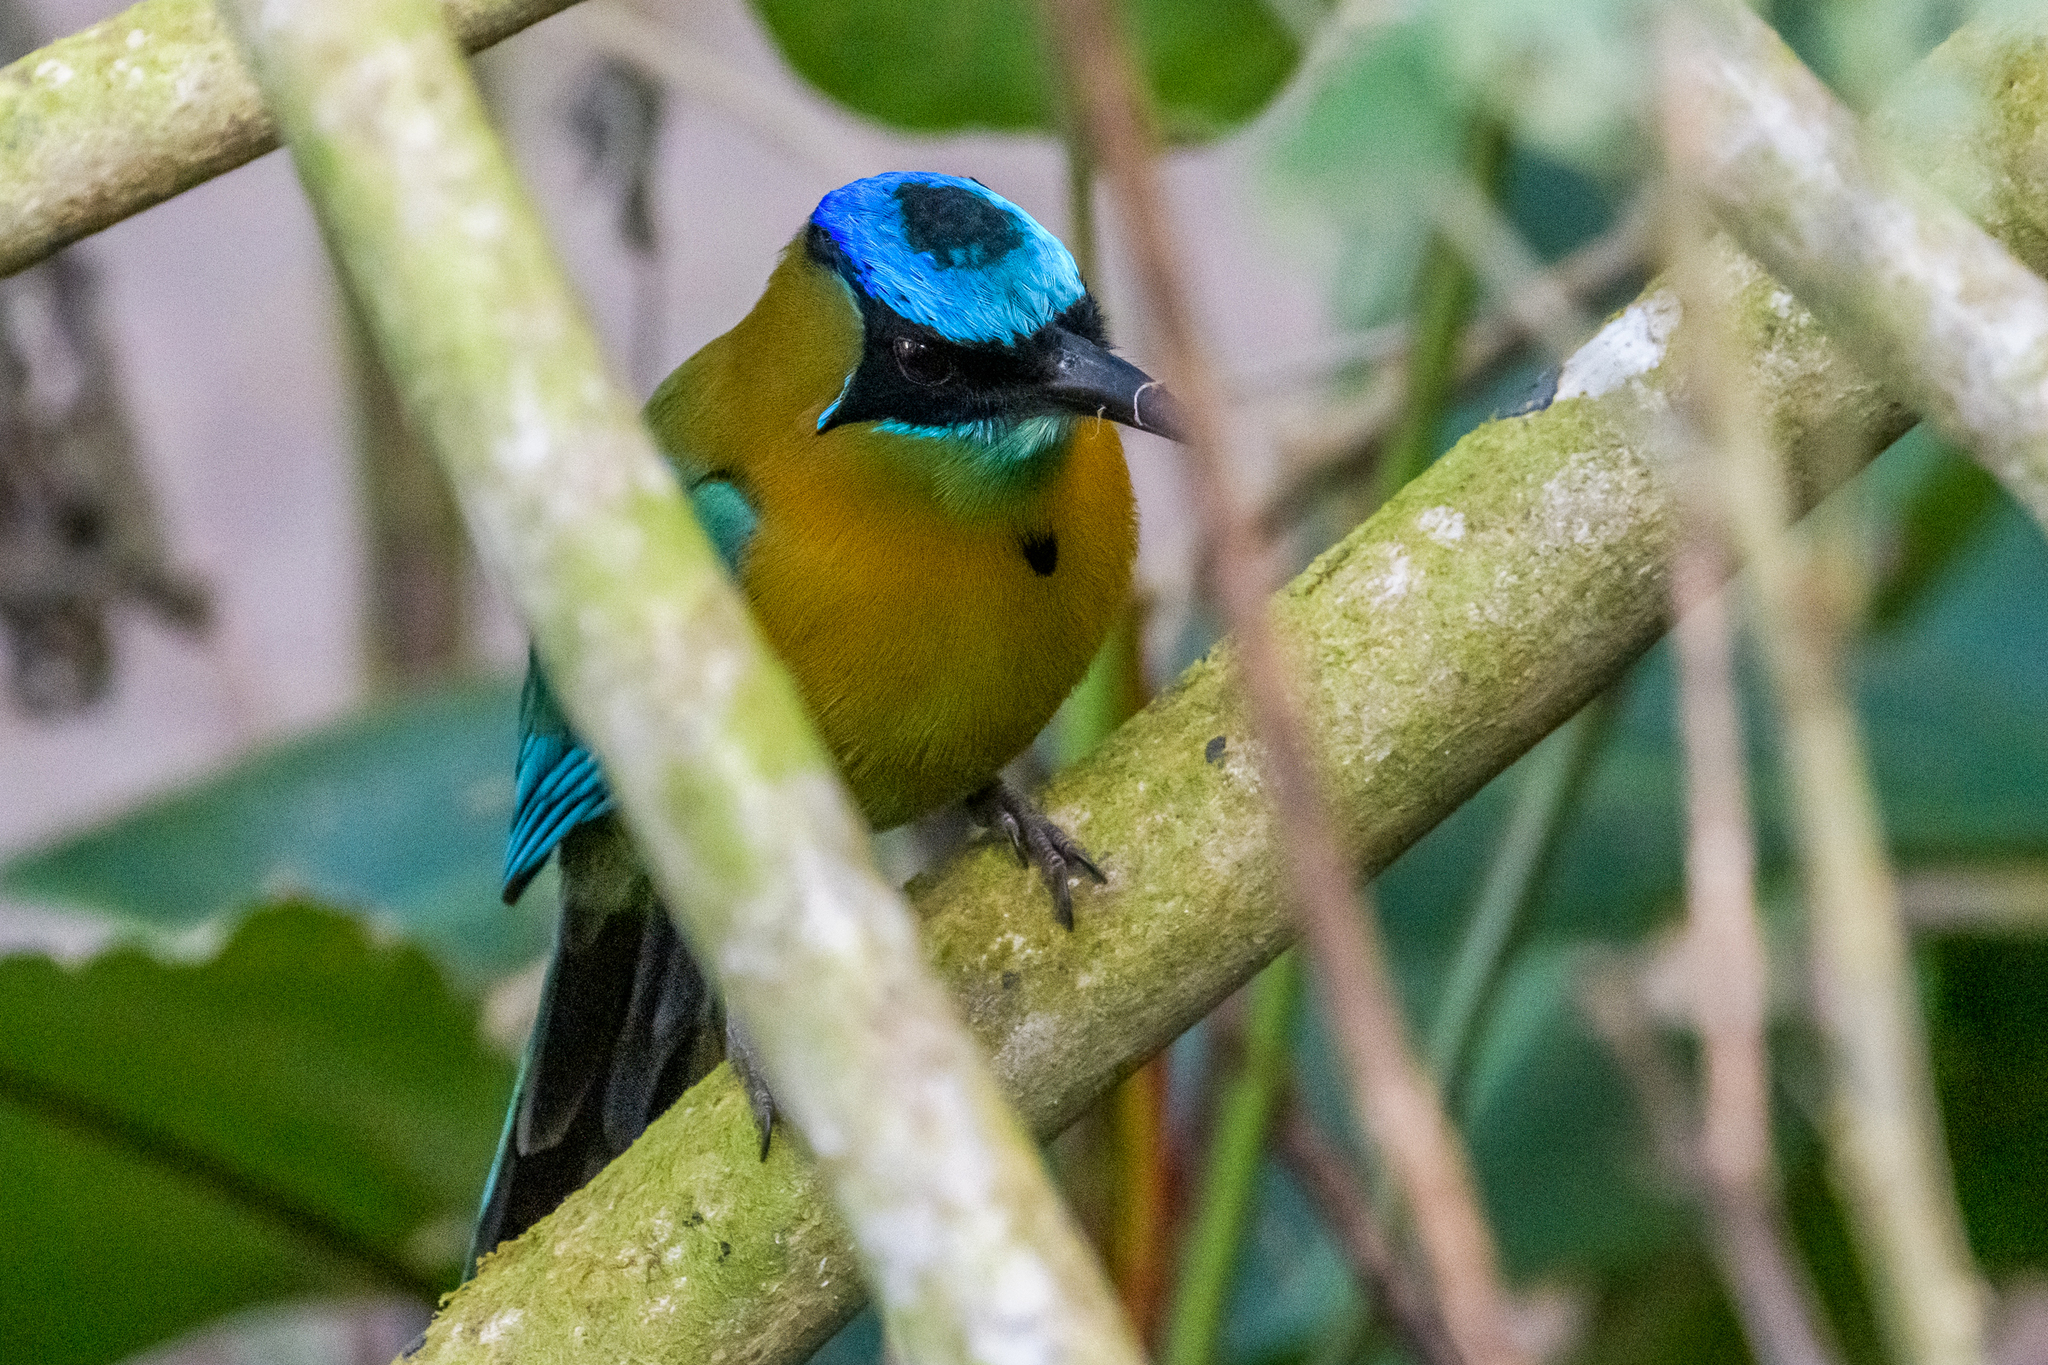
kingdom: Animalia
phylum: Chordata
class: Aves
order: Coraciiformes
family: Momotidae
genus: Momotus
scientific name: Momotus lessonii
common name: Lesson's motmot
